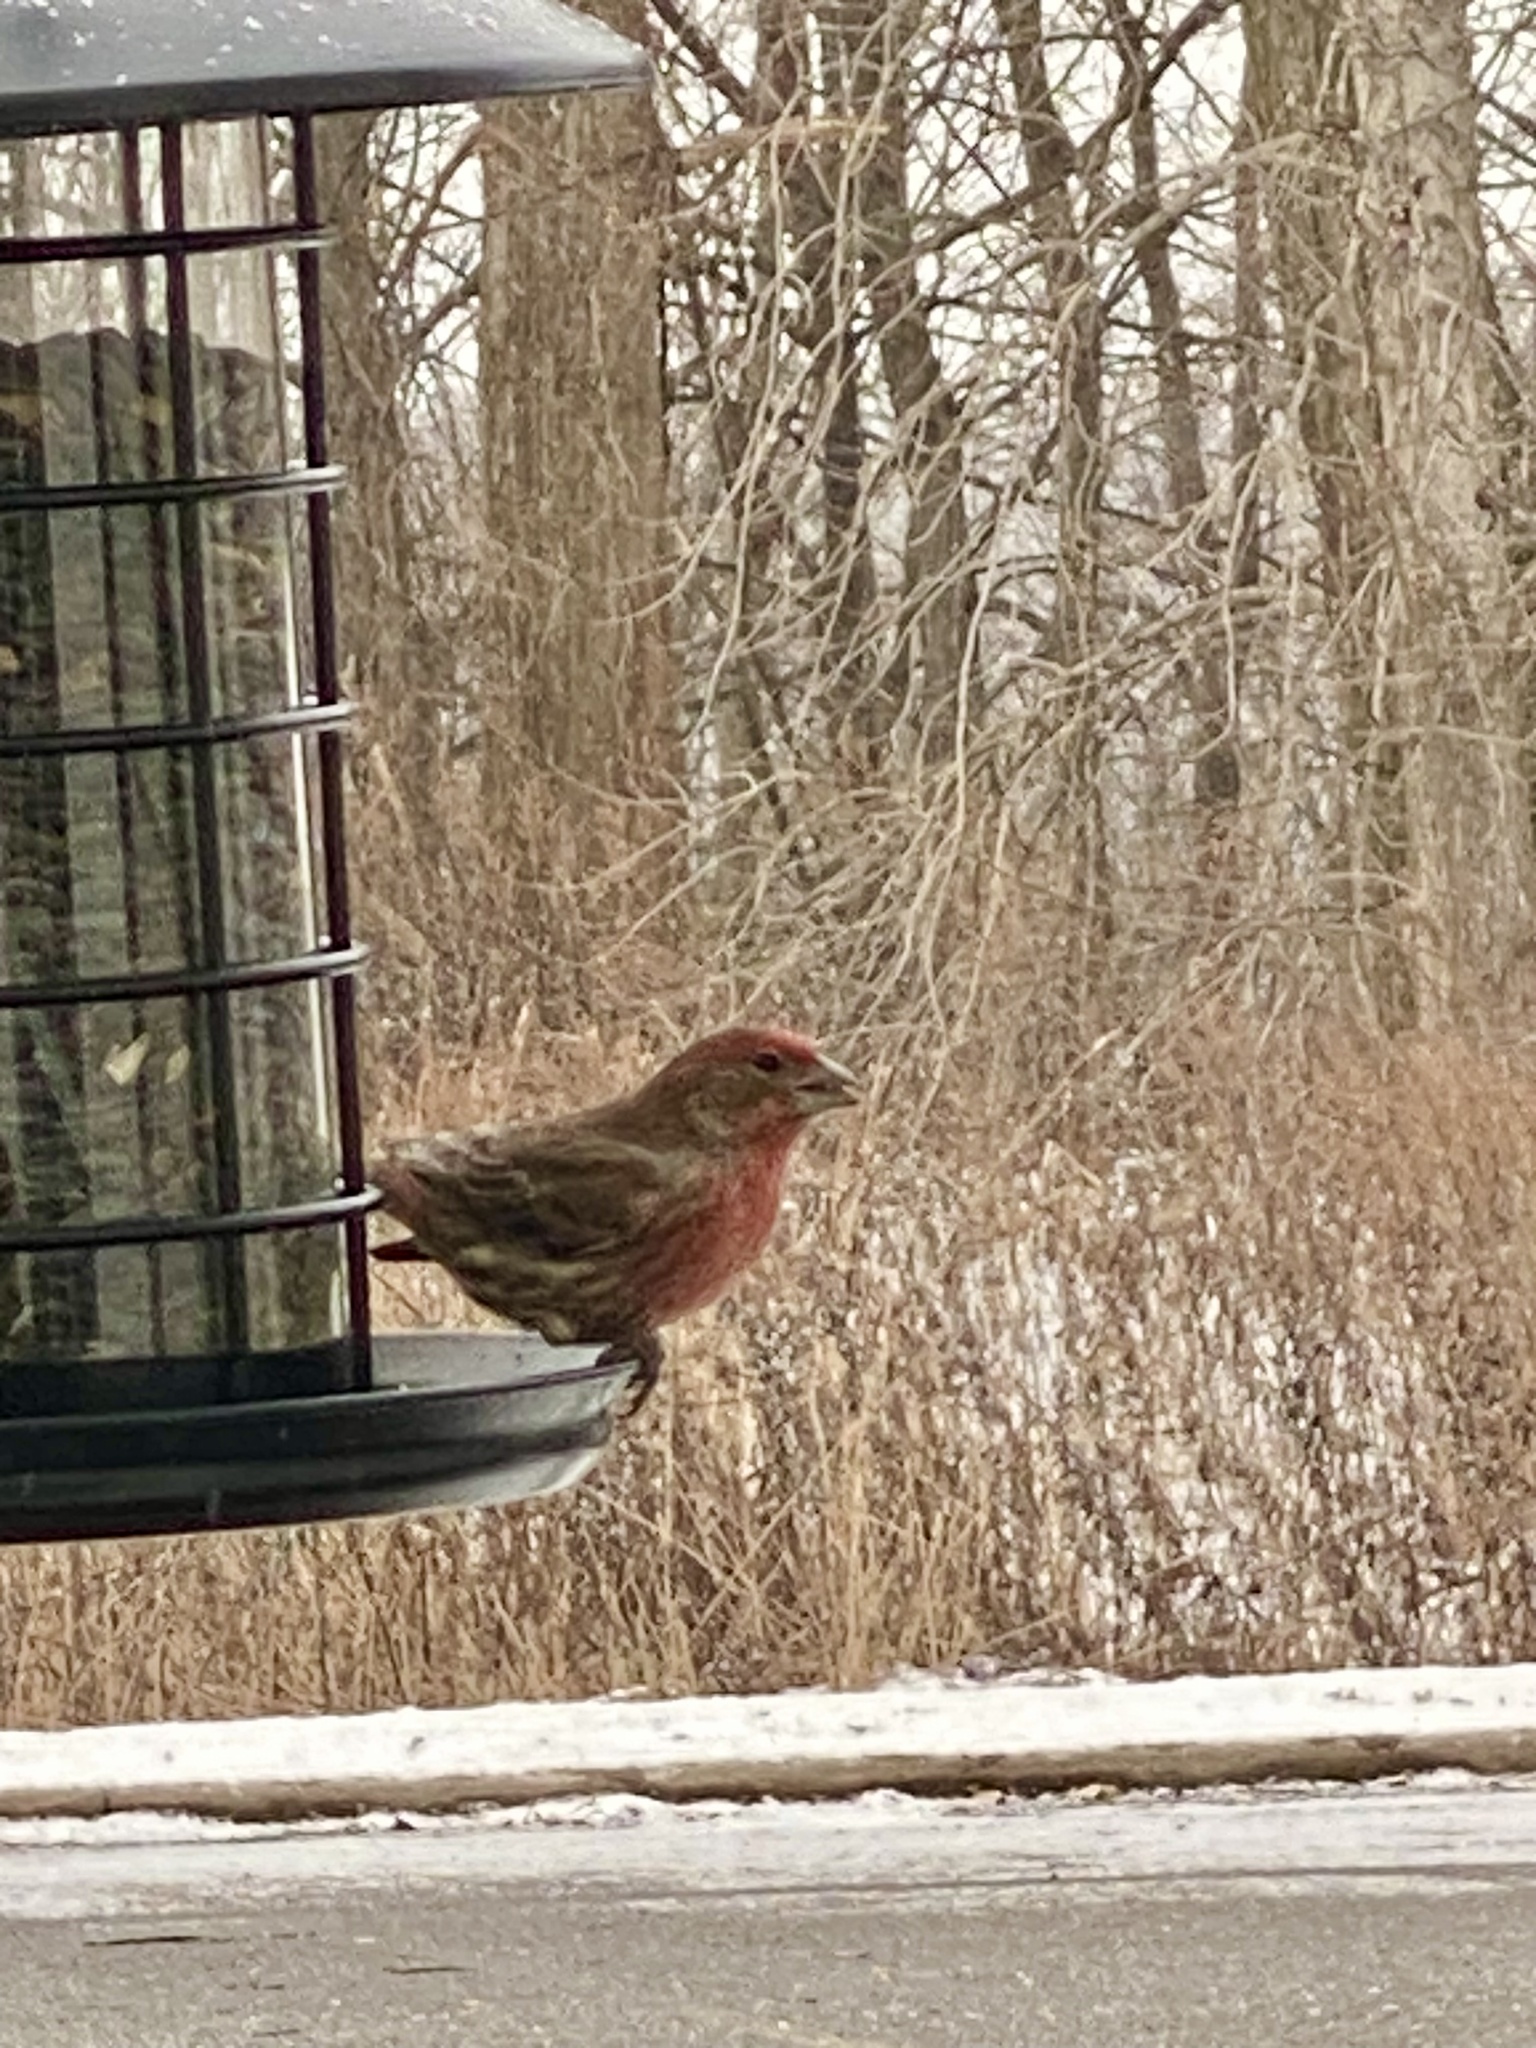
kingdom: Animalia
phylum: Chordata
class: Aves
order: Passeriformes
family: Fringillidae
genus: Haemorhous
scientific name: Haemorhous mexicanus
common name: House finch
